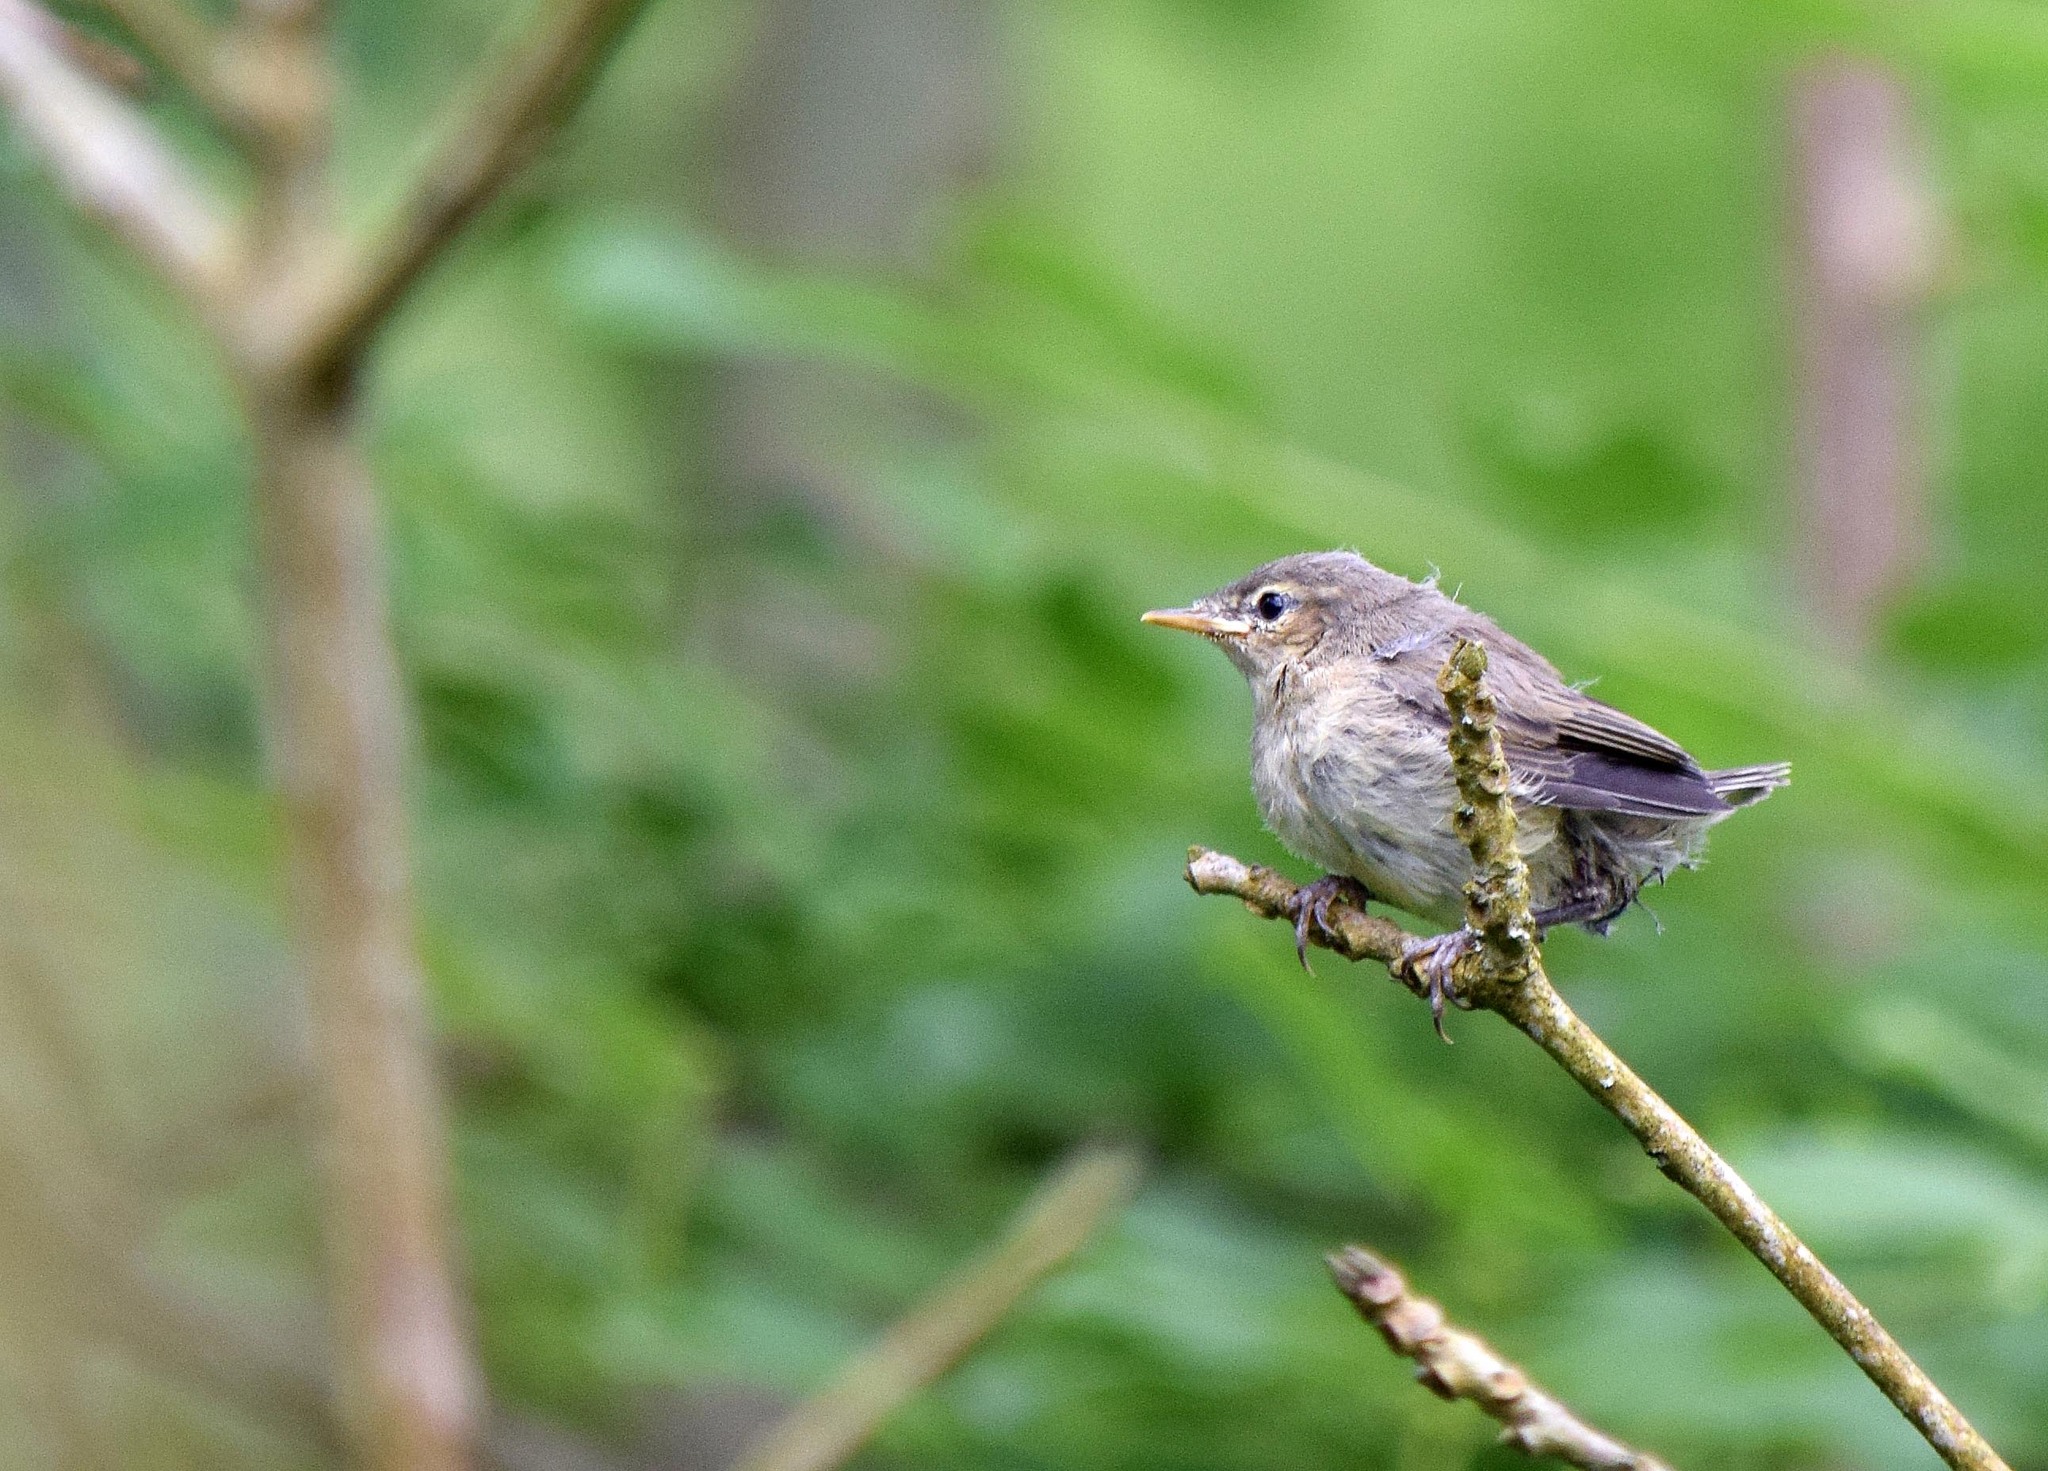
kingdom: Animalia
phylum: Chordata
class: Aves
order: Passeriformes
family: Phylloscopidae
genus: Phylloscopus
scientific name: Phylloscopus collybita
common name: Common chiffchaff
